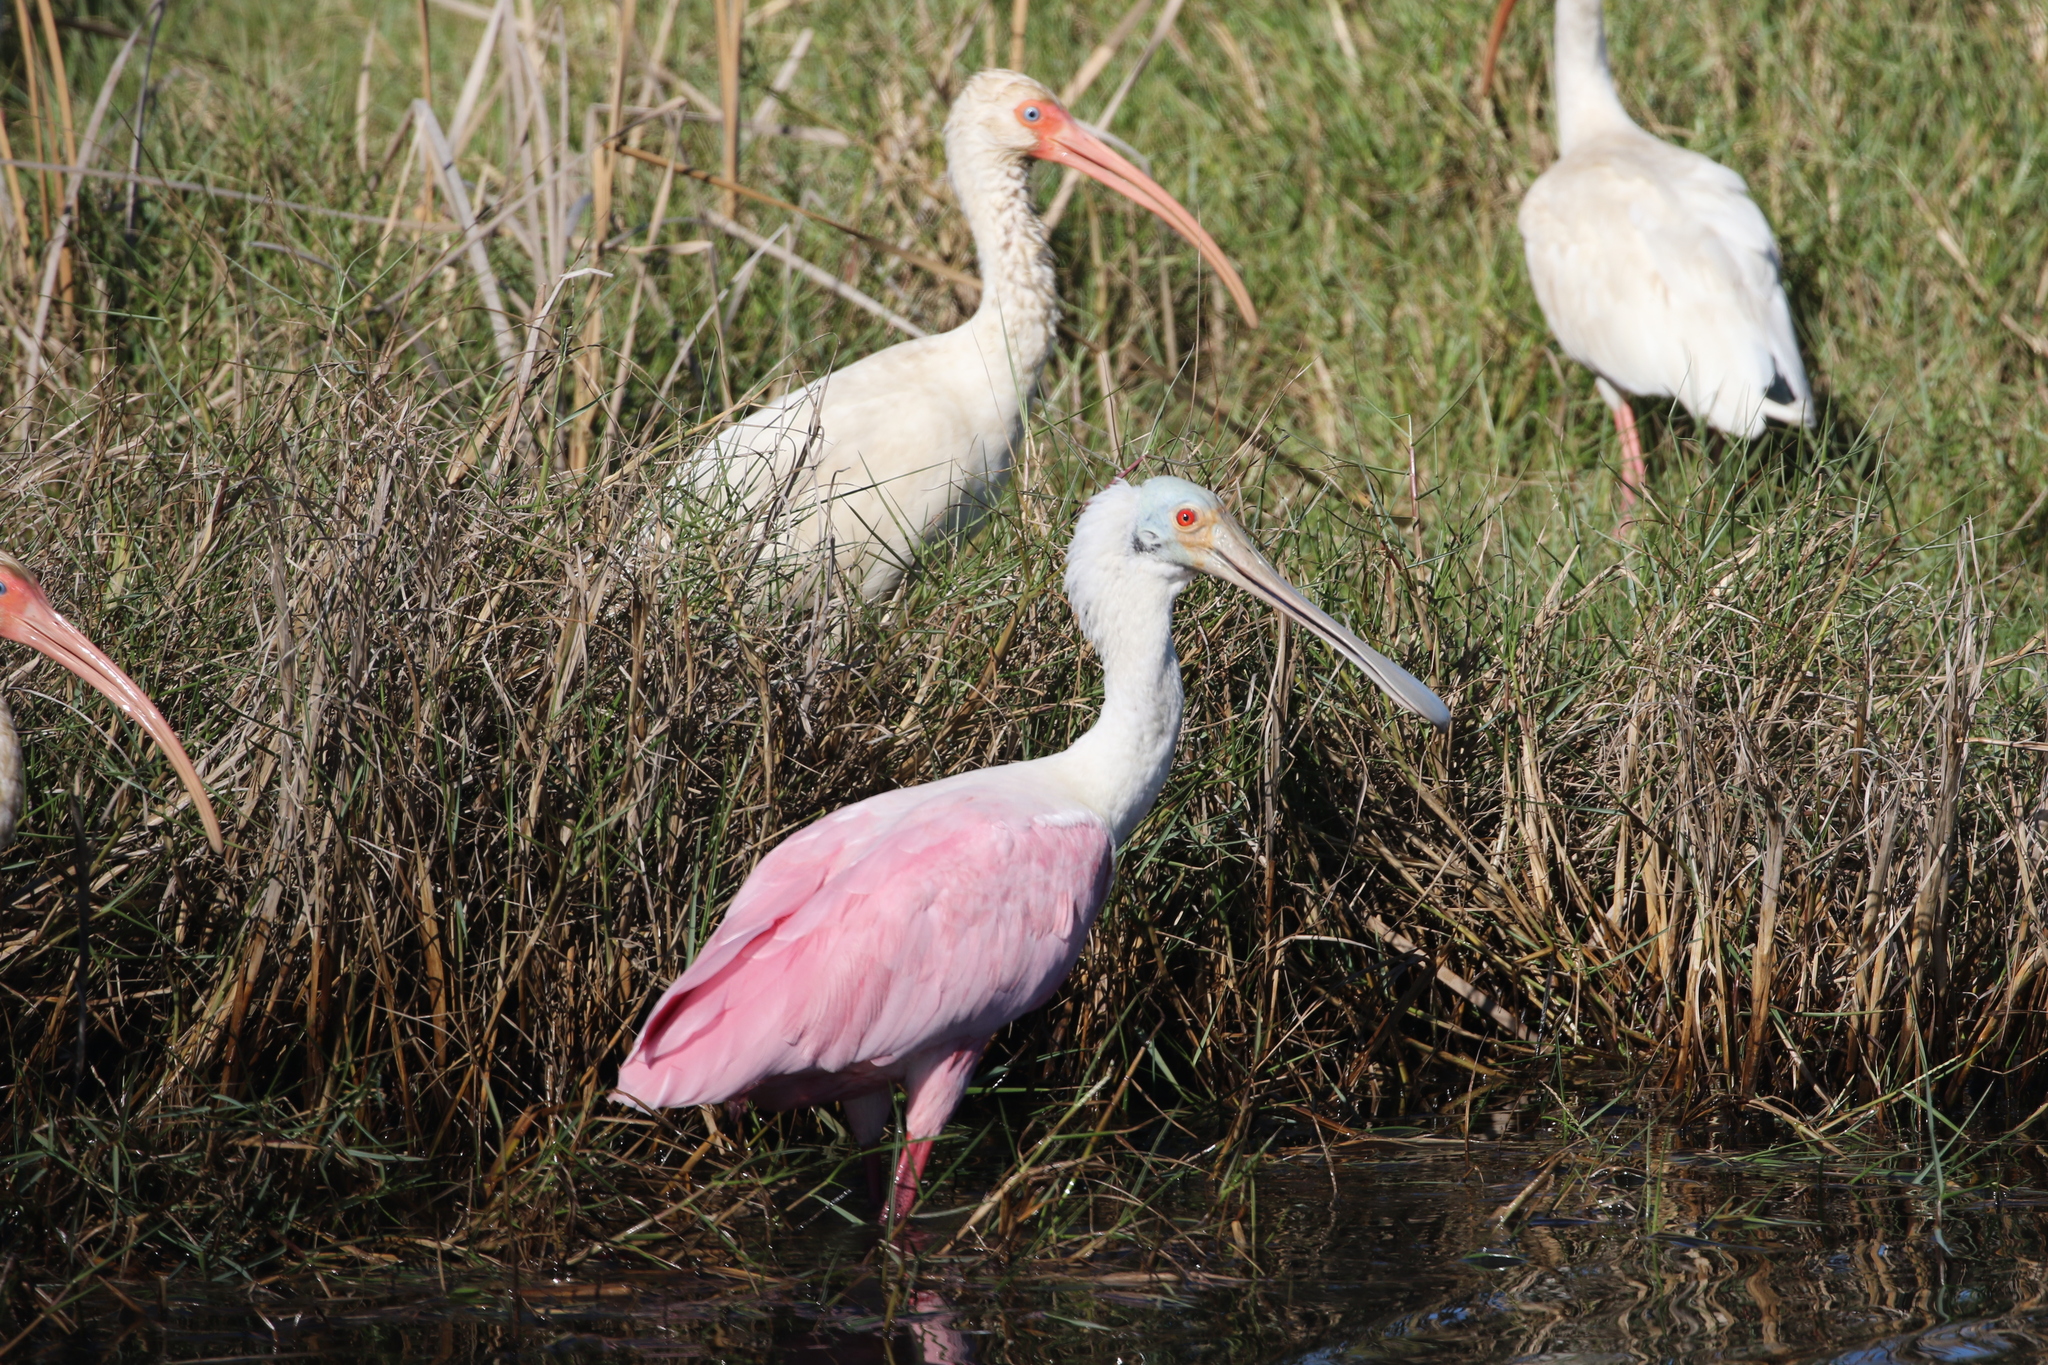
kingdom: Animalia
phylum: Chordata
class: Aves
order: Pelecaniformes
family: Threskiornithidae
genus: Eudocimus
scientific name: Eudocimus albus
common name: White ibis
